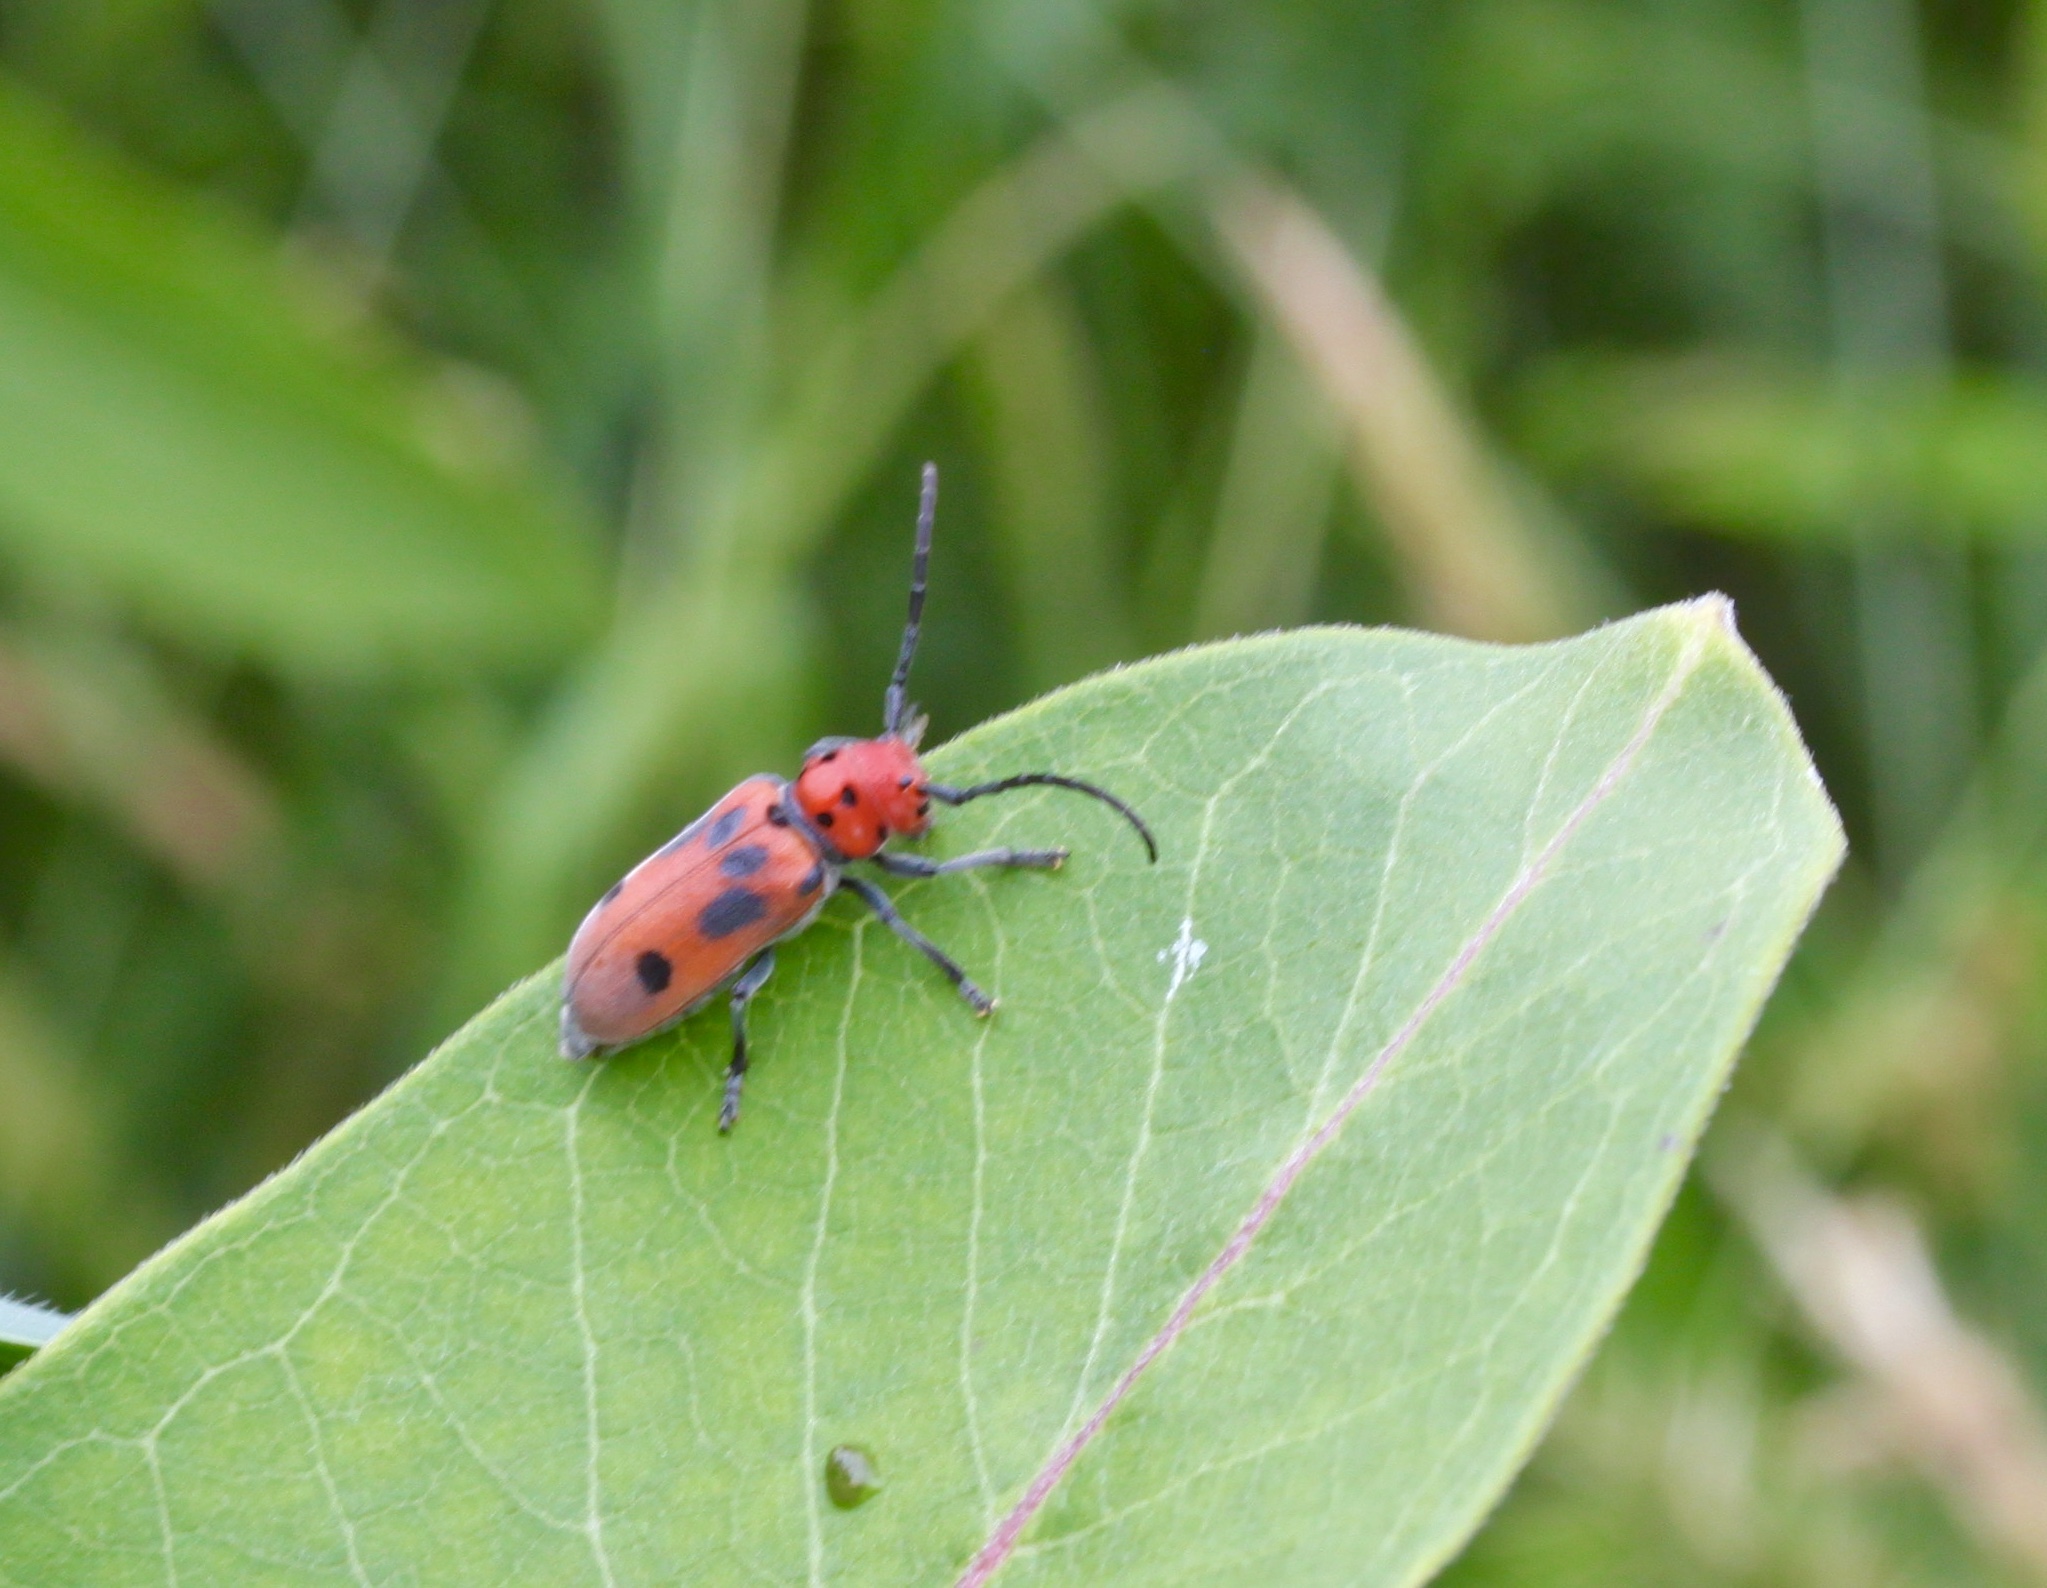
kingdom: Animalia
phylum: Arthropoda
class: Insecta
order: Coleoptera
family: Cerambycidae
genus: Tetraopes
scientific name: Tetraopes tetrophthalmus
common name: Red milkweed beetle
